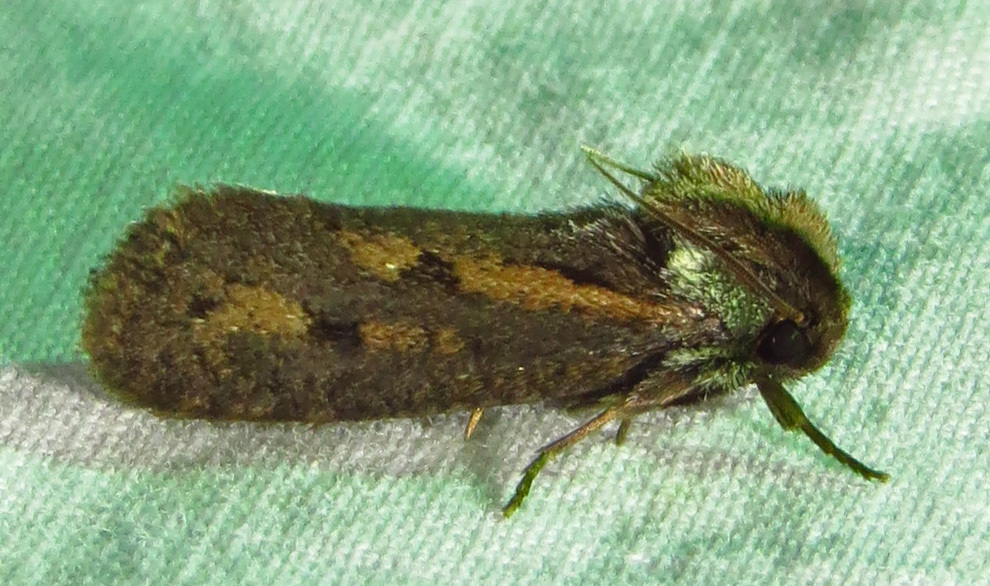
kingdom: Animalia
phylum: Arthropoda
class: Insecta
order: Lepidoptera
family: Tineidae
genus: Acrolophus
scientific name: Acrolophus popeanella
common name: Clemens' grass tubeworm moth
